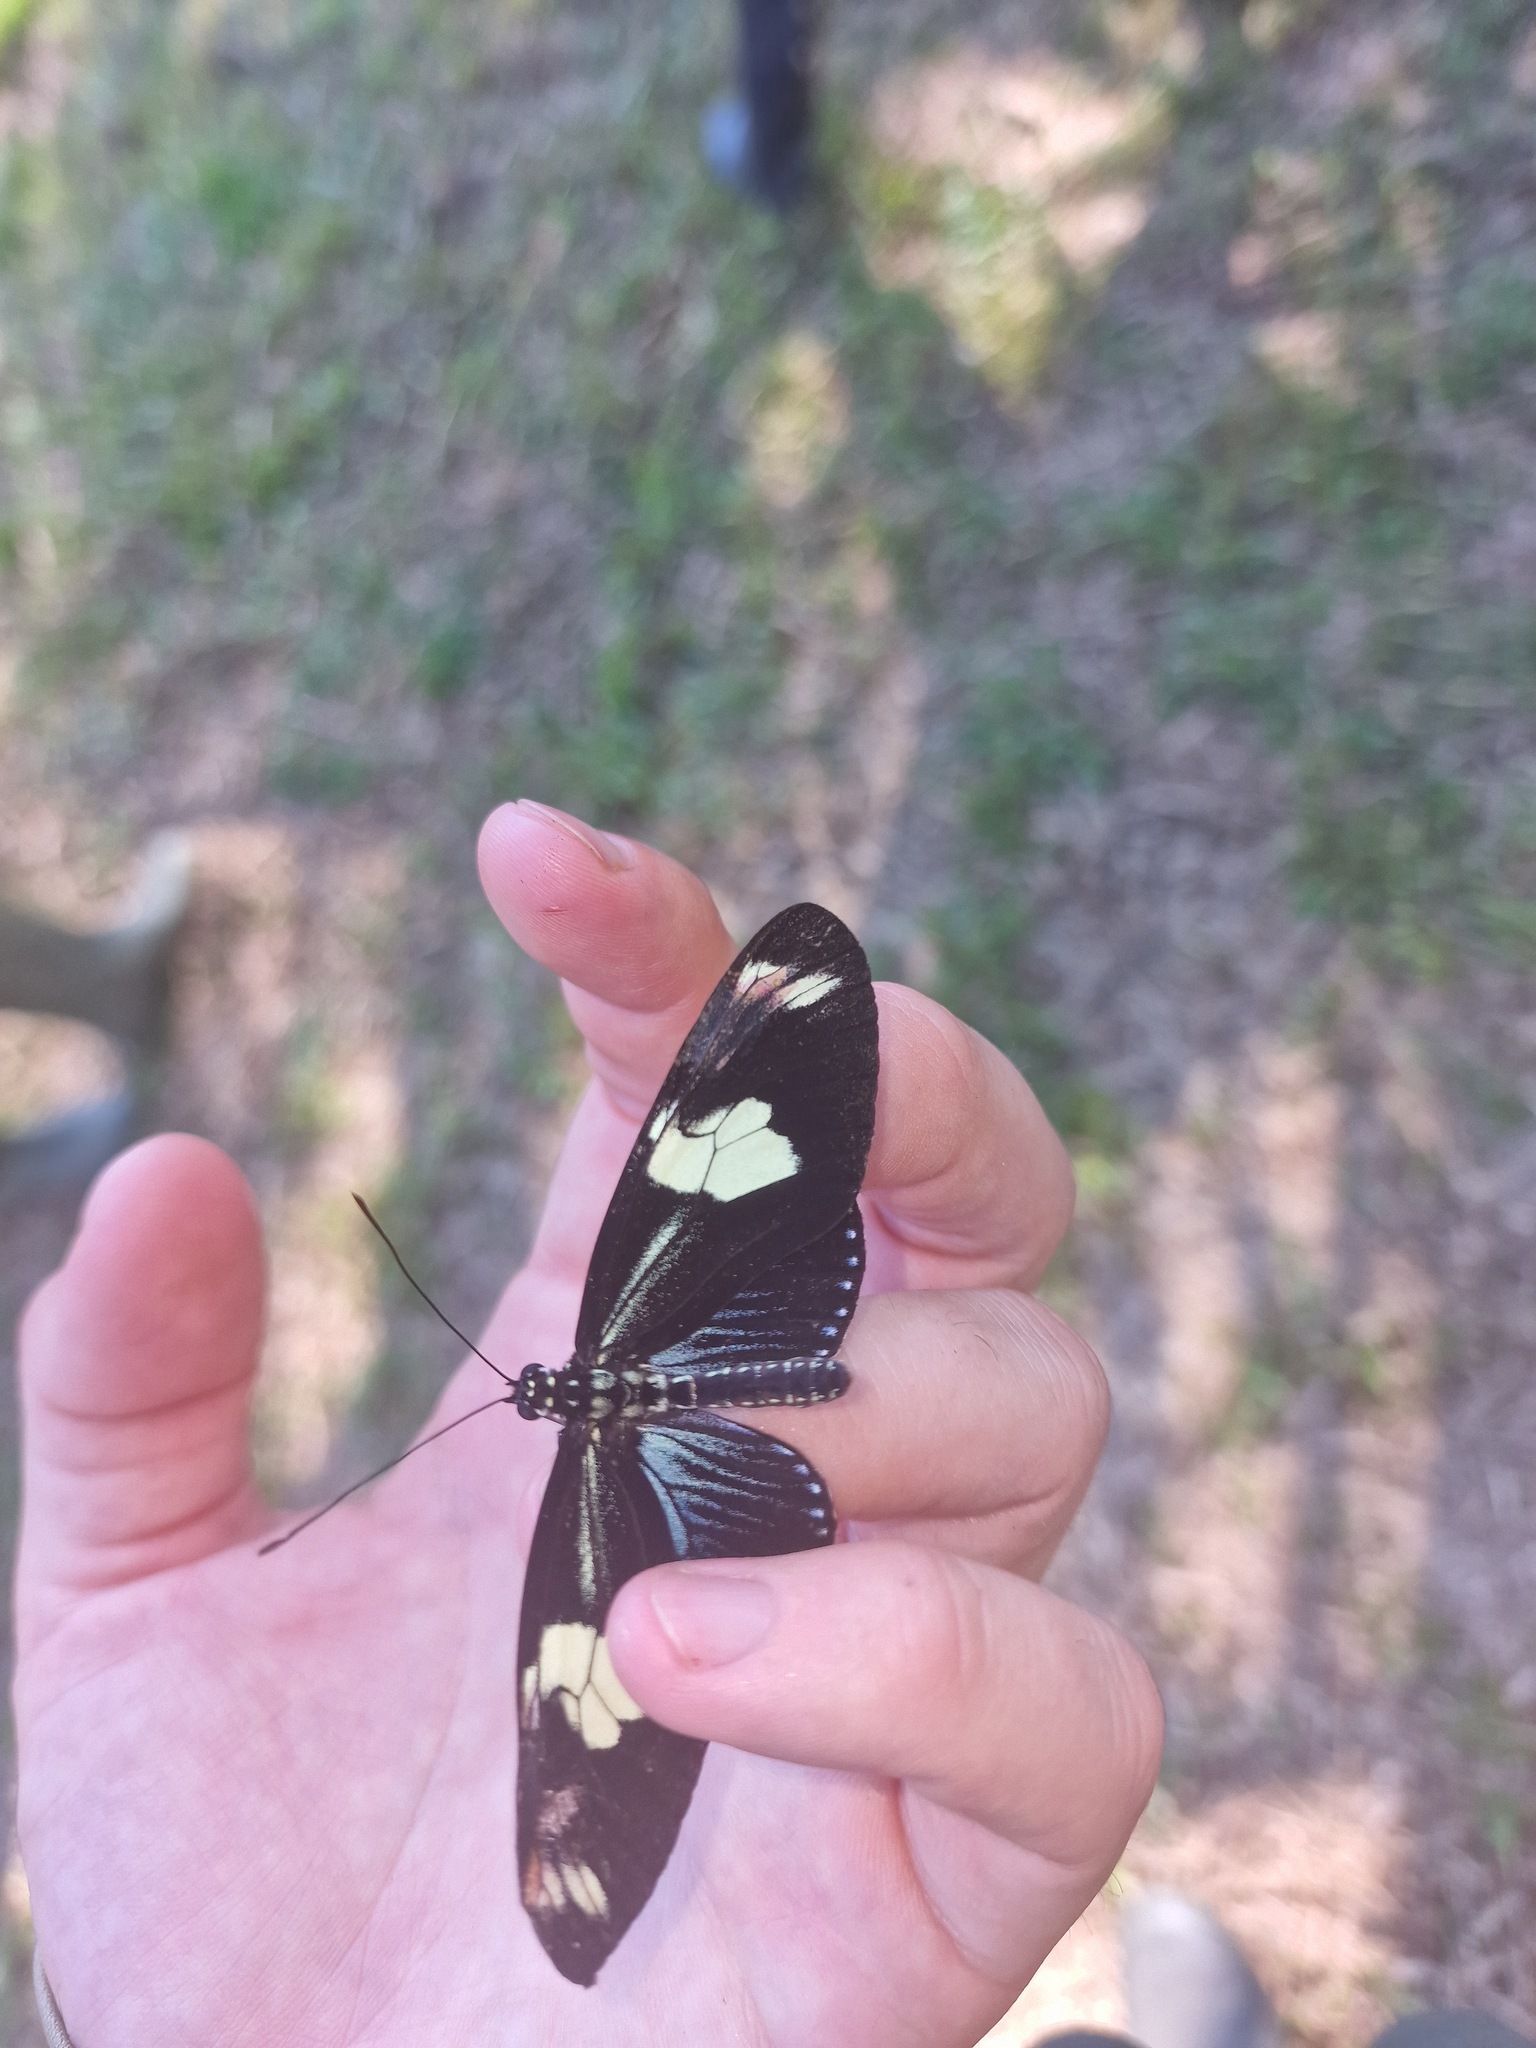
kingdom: Animalia
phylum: Arthropoda
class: Insecta
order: Lepidoptera
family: Nymphalidae
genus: Heliconius
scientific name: Heliconius doris
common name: Doris longwing
